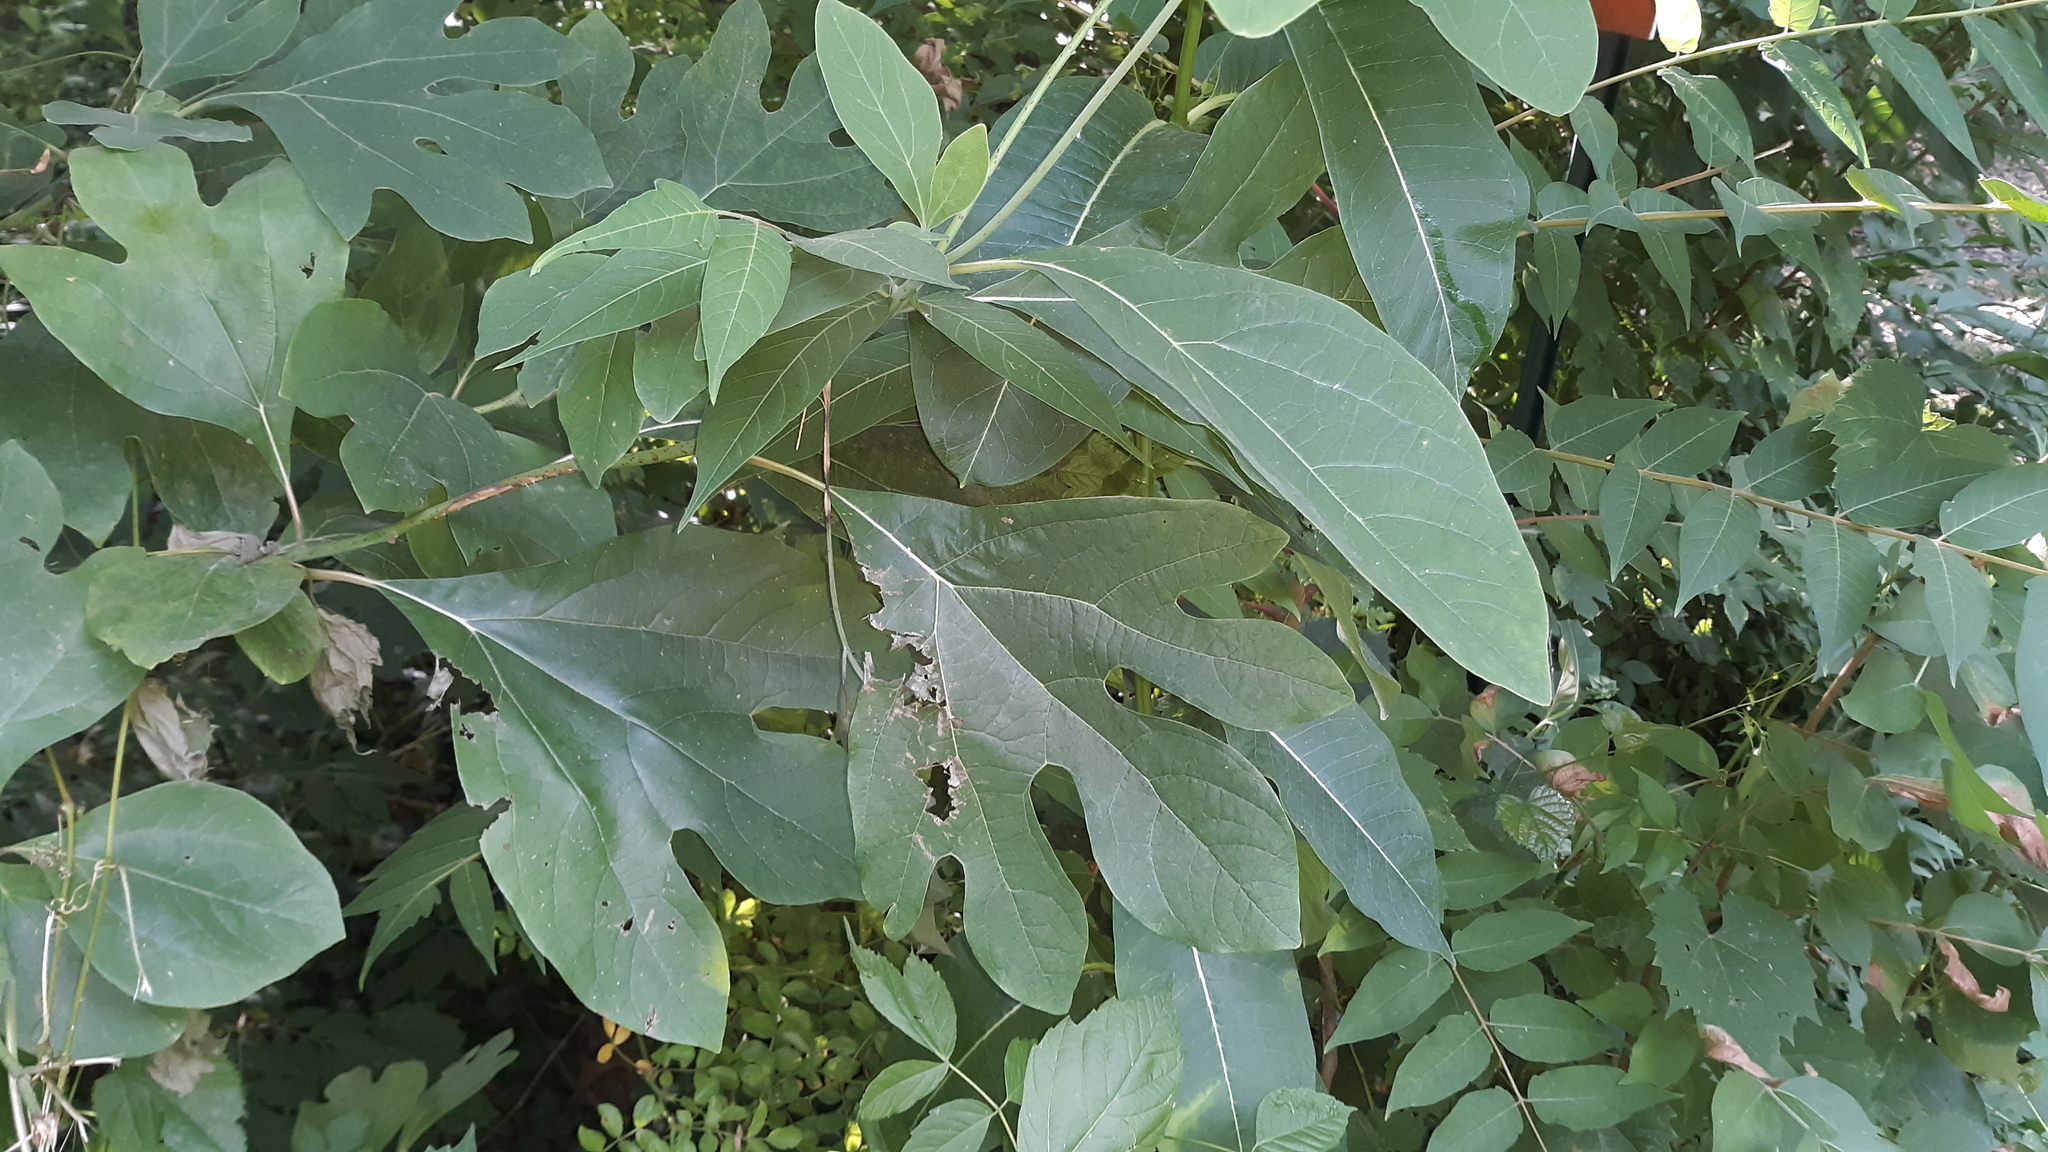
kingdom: Plantae
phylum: Tracheophyta
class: Magnoliopsida
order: Laurales
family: Lauraceae
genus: Sassafras
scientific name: Sassafras albidum
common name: Sassafras
